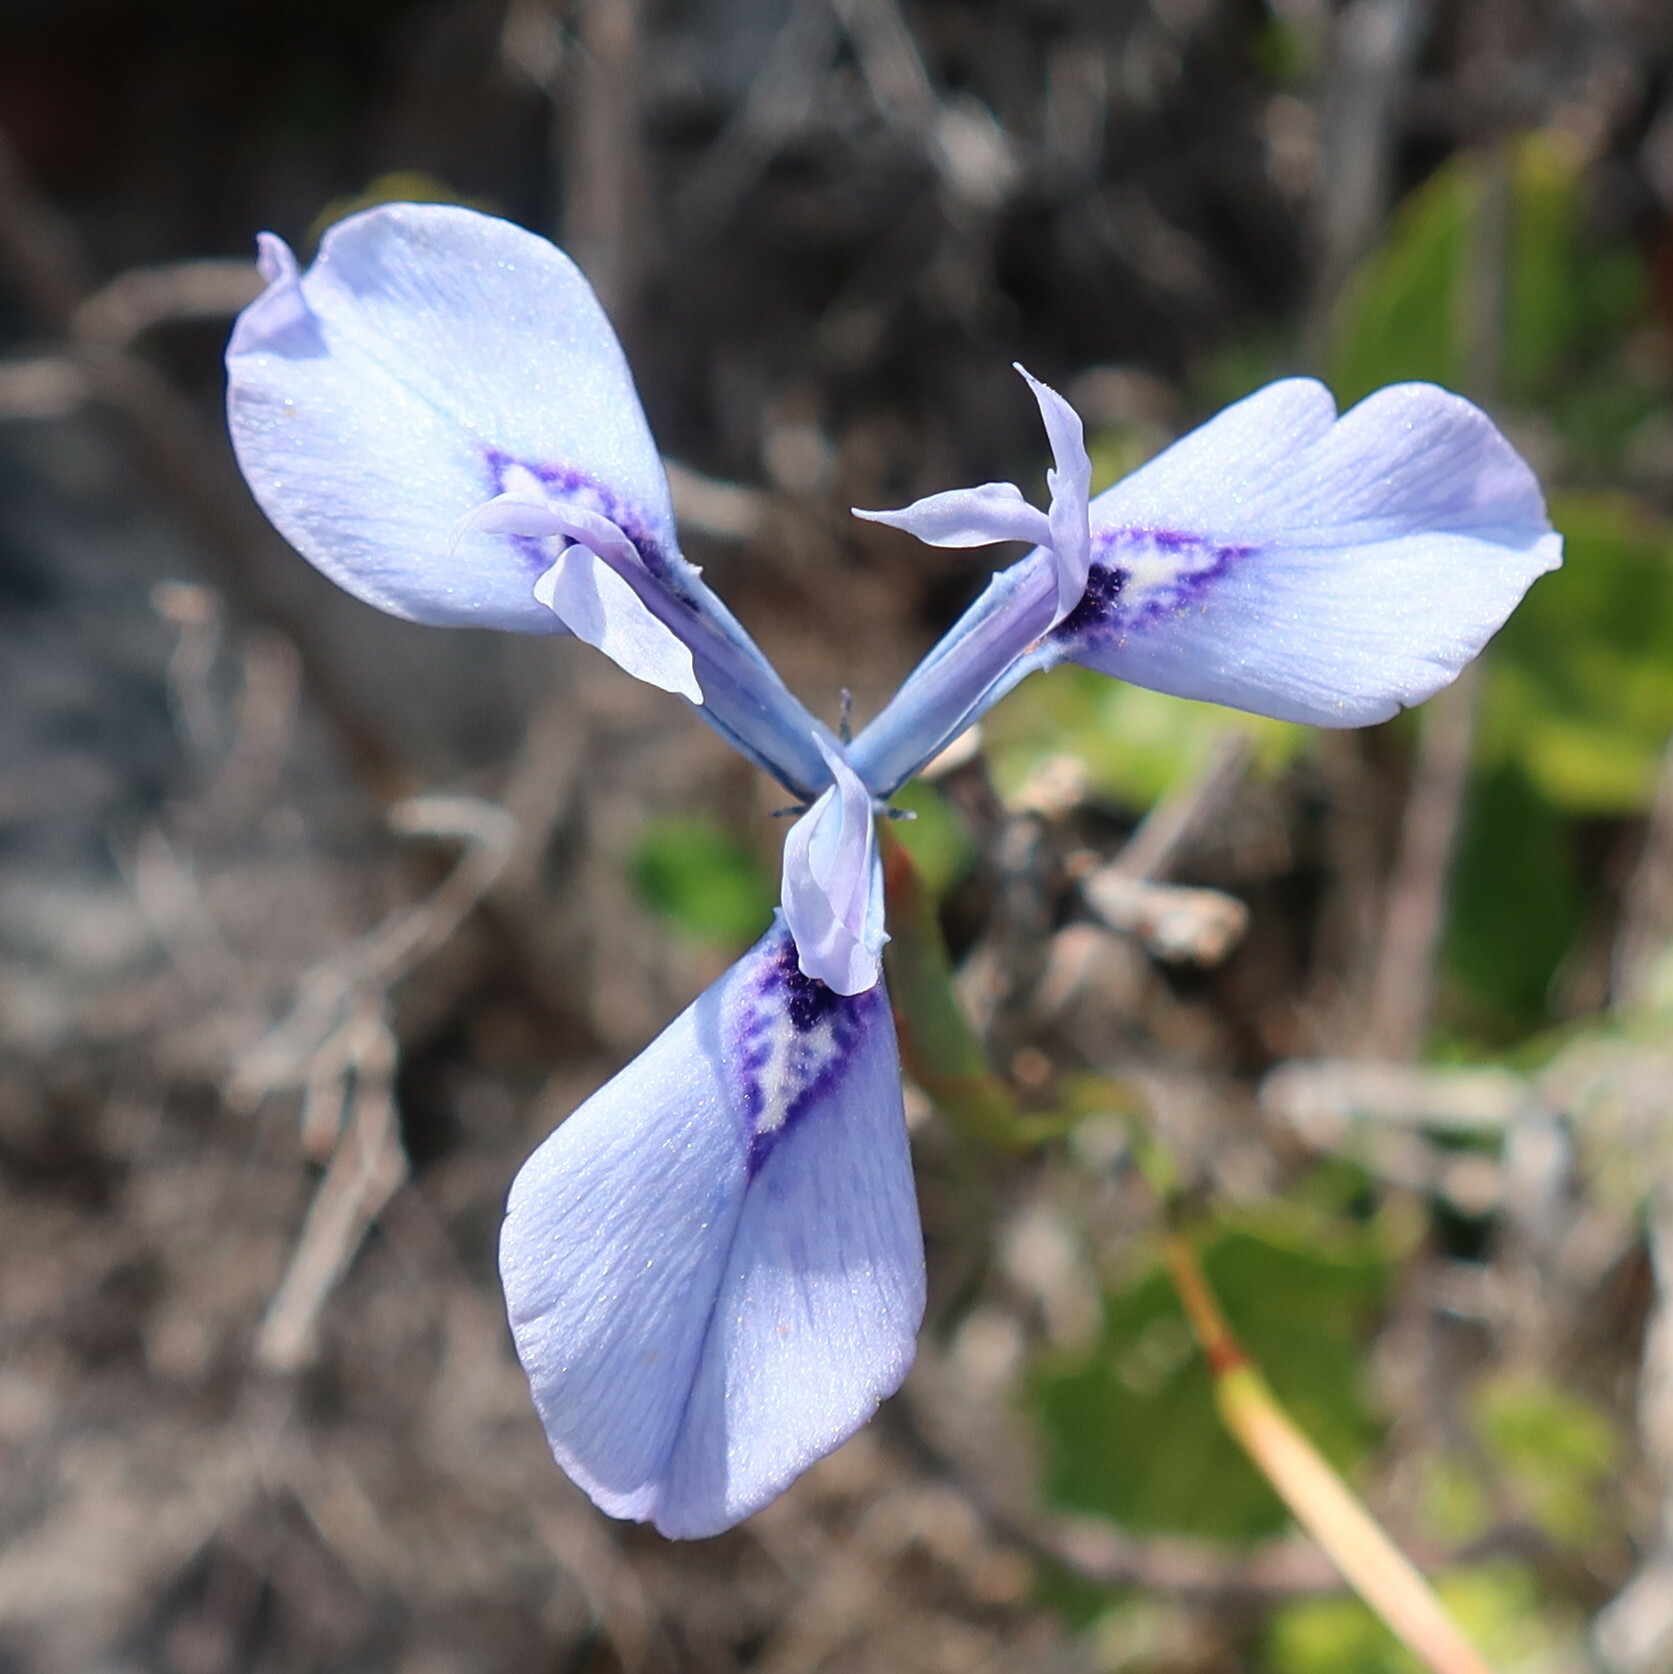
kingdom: Plantae
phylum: Tracheophyta
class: Liliopsida
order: Asparagales
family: Iridaceae
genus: Moraea
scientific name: Moraea tripetala
